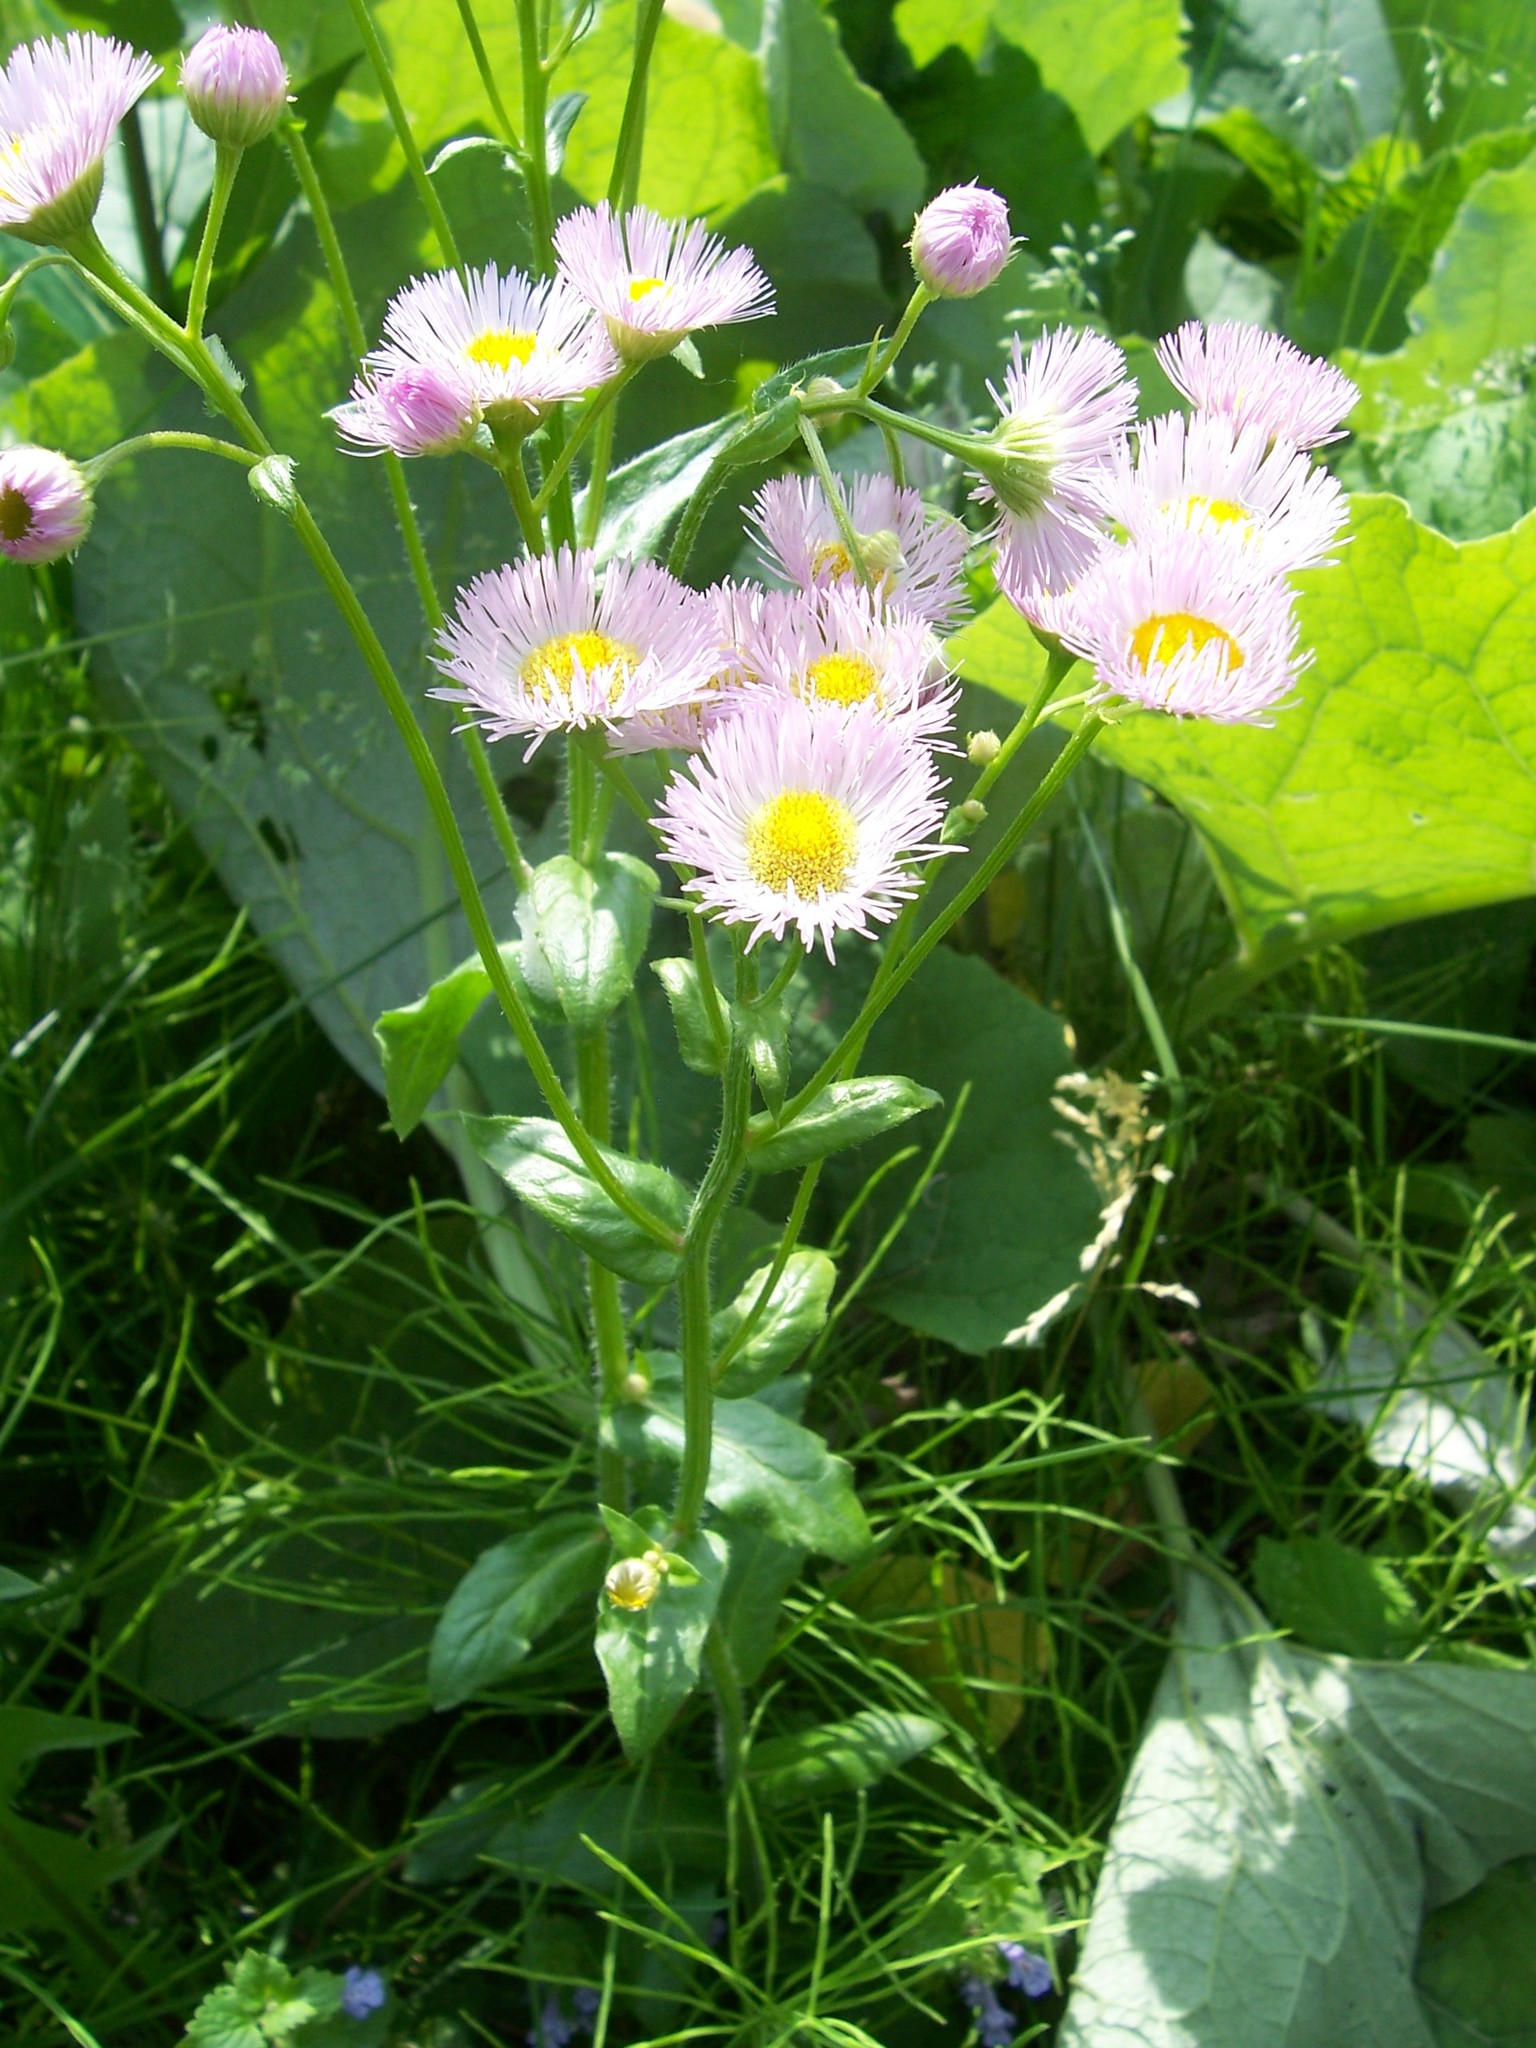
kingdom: Plantae
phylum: Tracheophyta
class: Magnoliopsida
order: Asterales
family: Asteraceae
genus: Erigeron
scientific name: Erigeron philadelphicus
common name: Robin's-plantain
